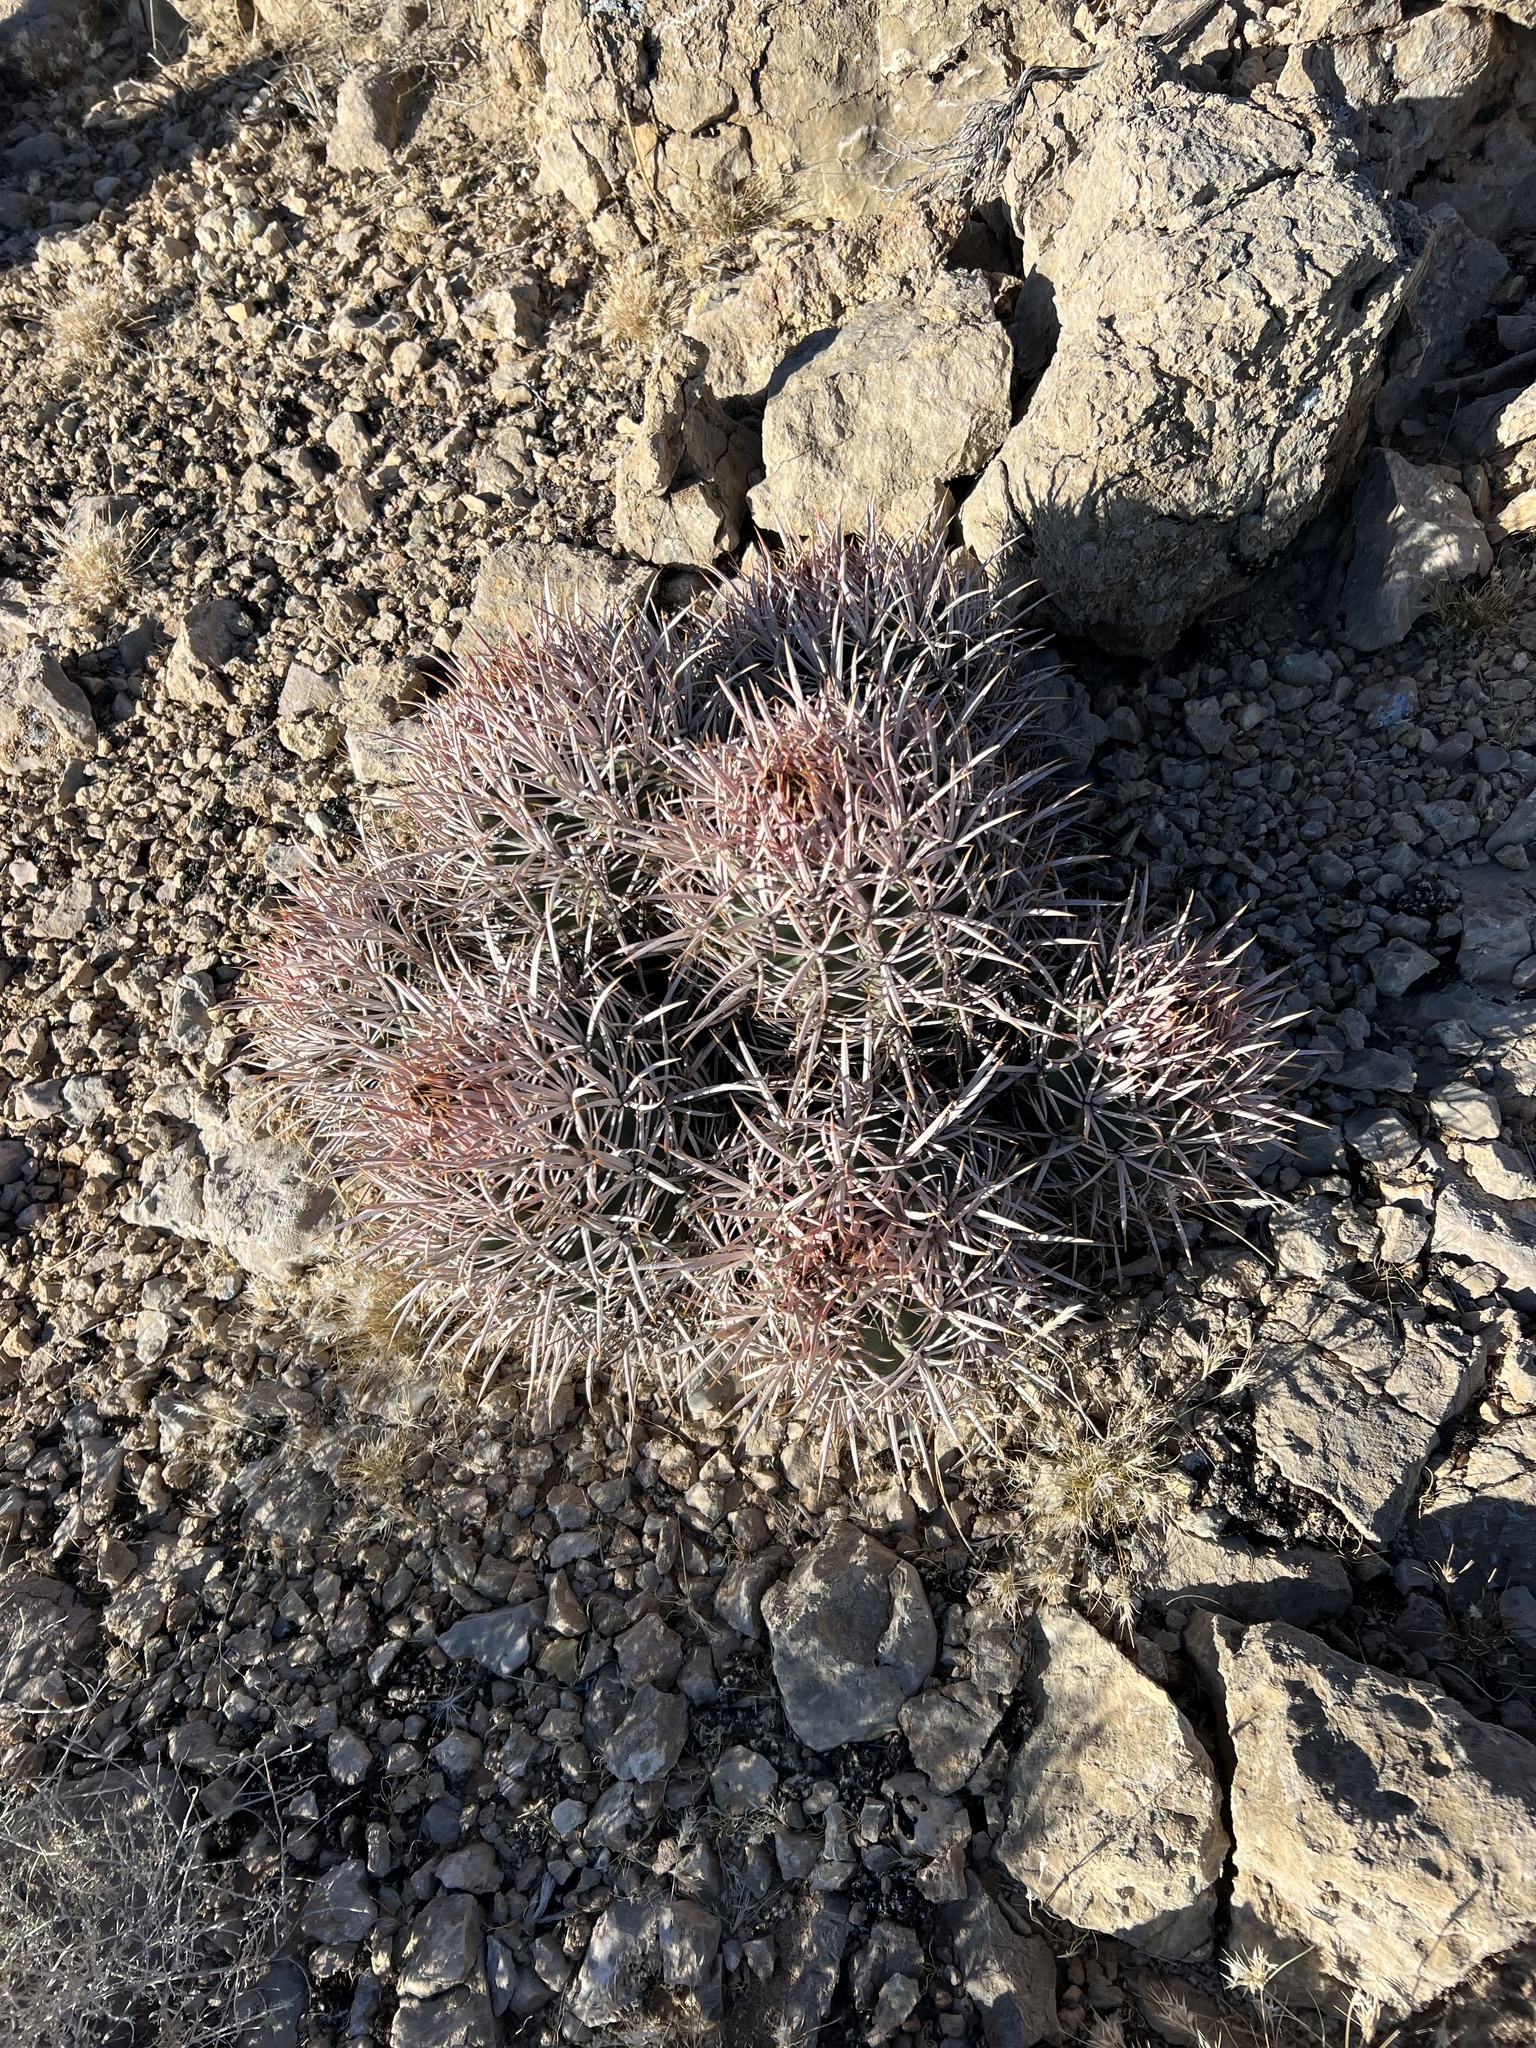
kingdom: Plantae
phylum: Tracheophyta
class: Magnoliopsida
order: Caryophyllales
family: Cactaceae
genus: Echinocactus
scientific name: Echinocactus polycephalus
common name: Cottontop cactus
